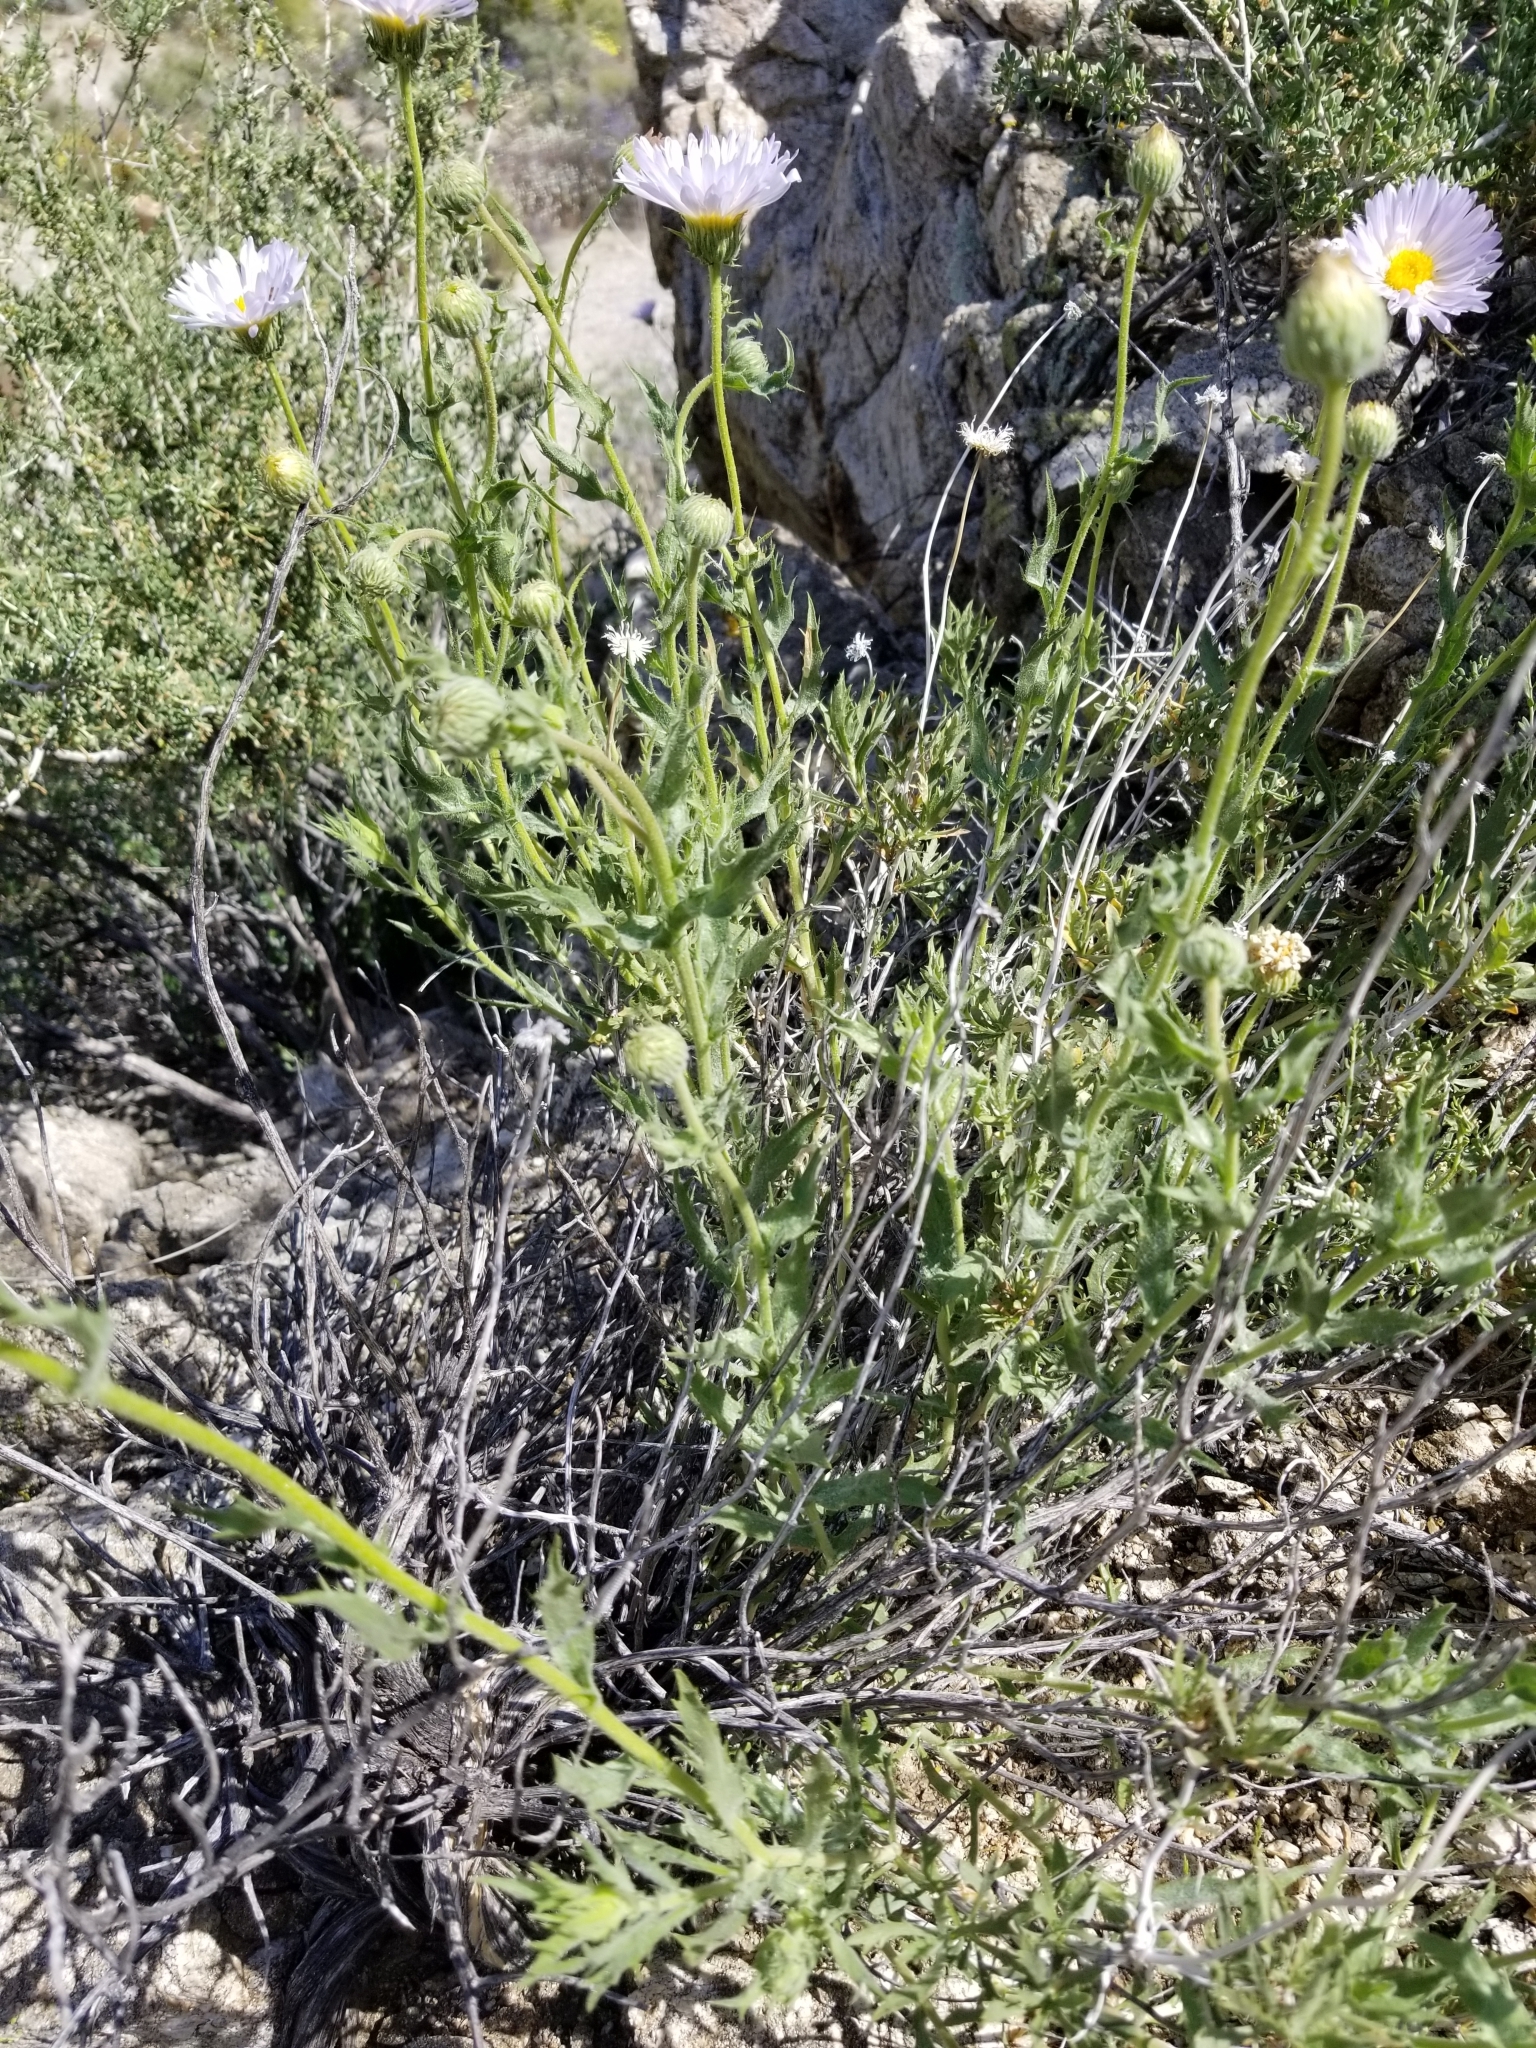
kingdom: Plantae
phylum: Tracheophyta
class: Magnoliopsida
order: Asterales
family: Asteraceae
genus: Xylorhiza
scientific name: Xylorhiza tortifolia
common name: Hurt-leaf woody-aster
